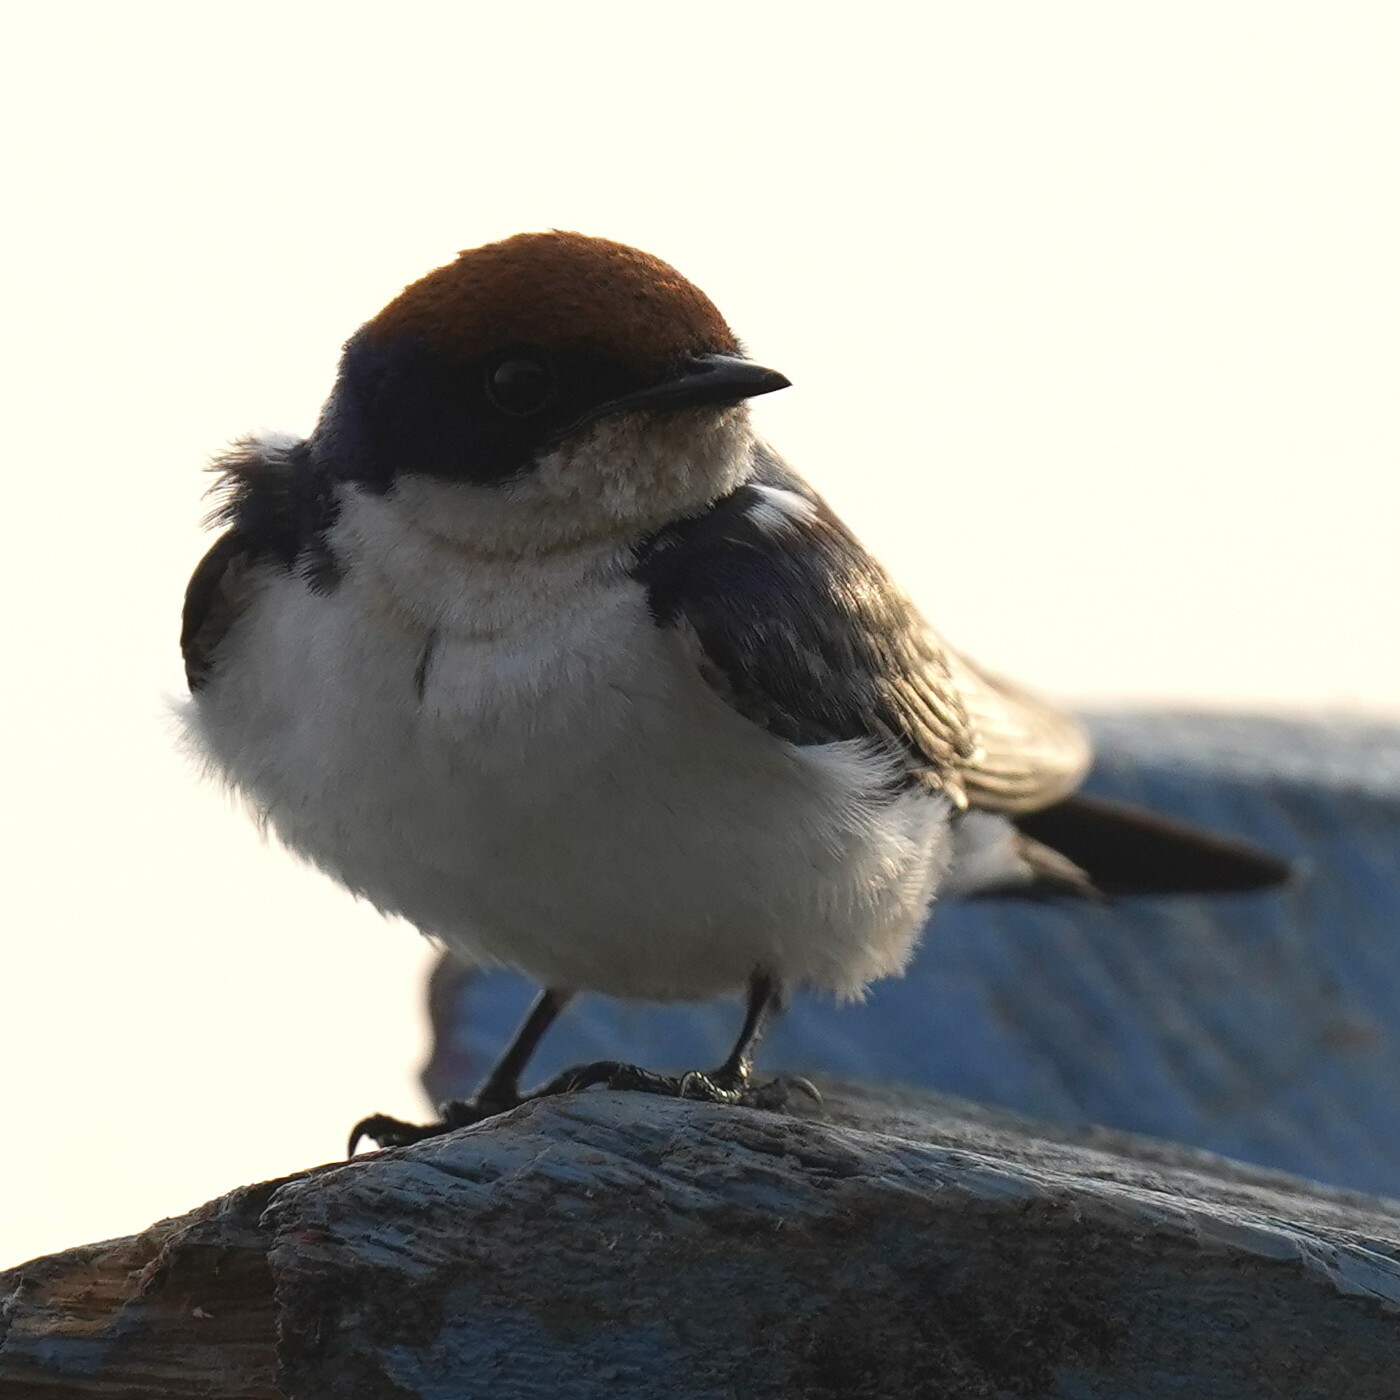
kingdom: Animalia
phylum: Chordata
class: Aves
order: Passeriformes
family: Hirundinidae
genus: Hirundo
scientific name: Hirundo smithii
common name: Wire-tailed swallow
